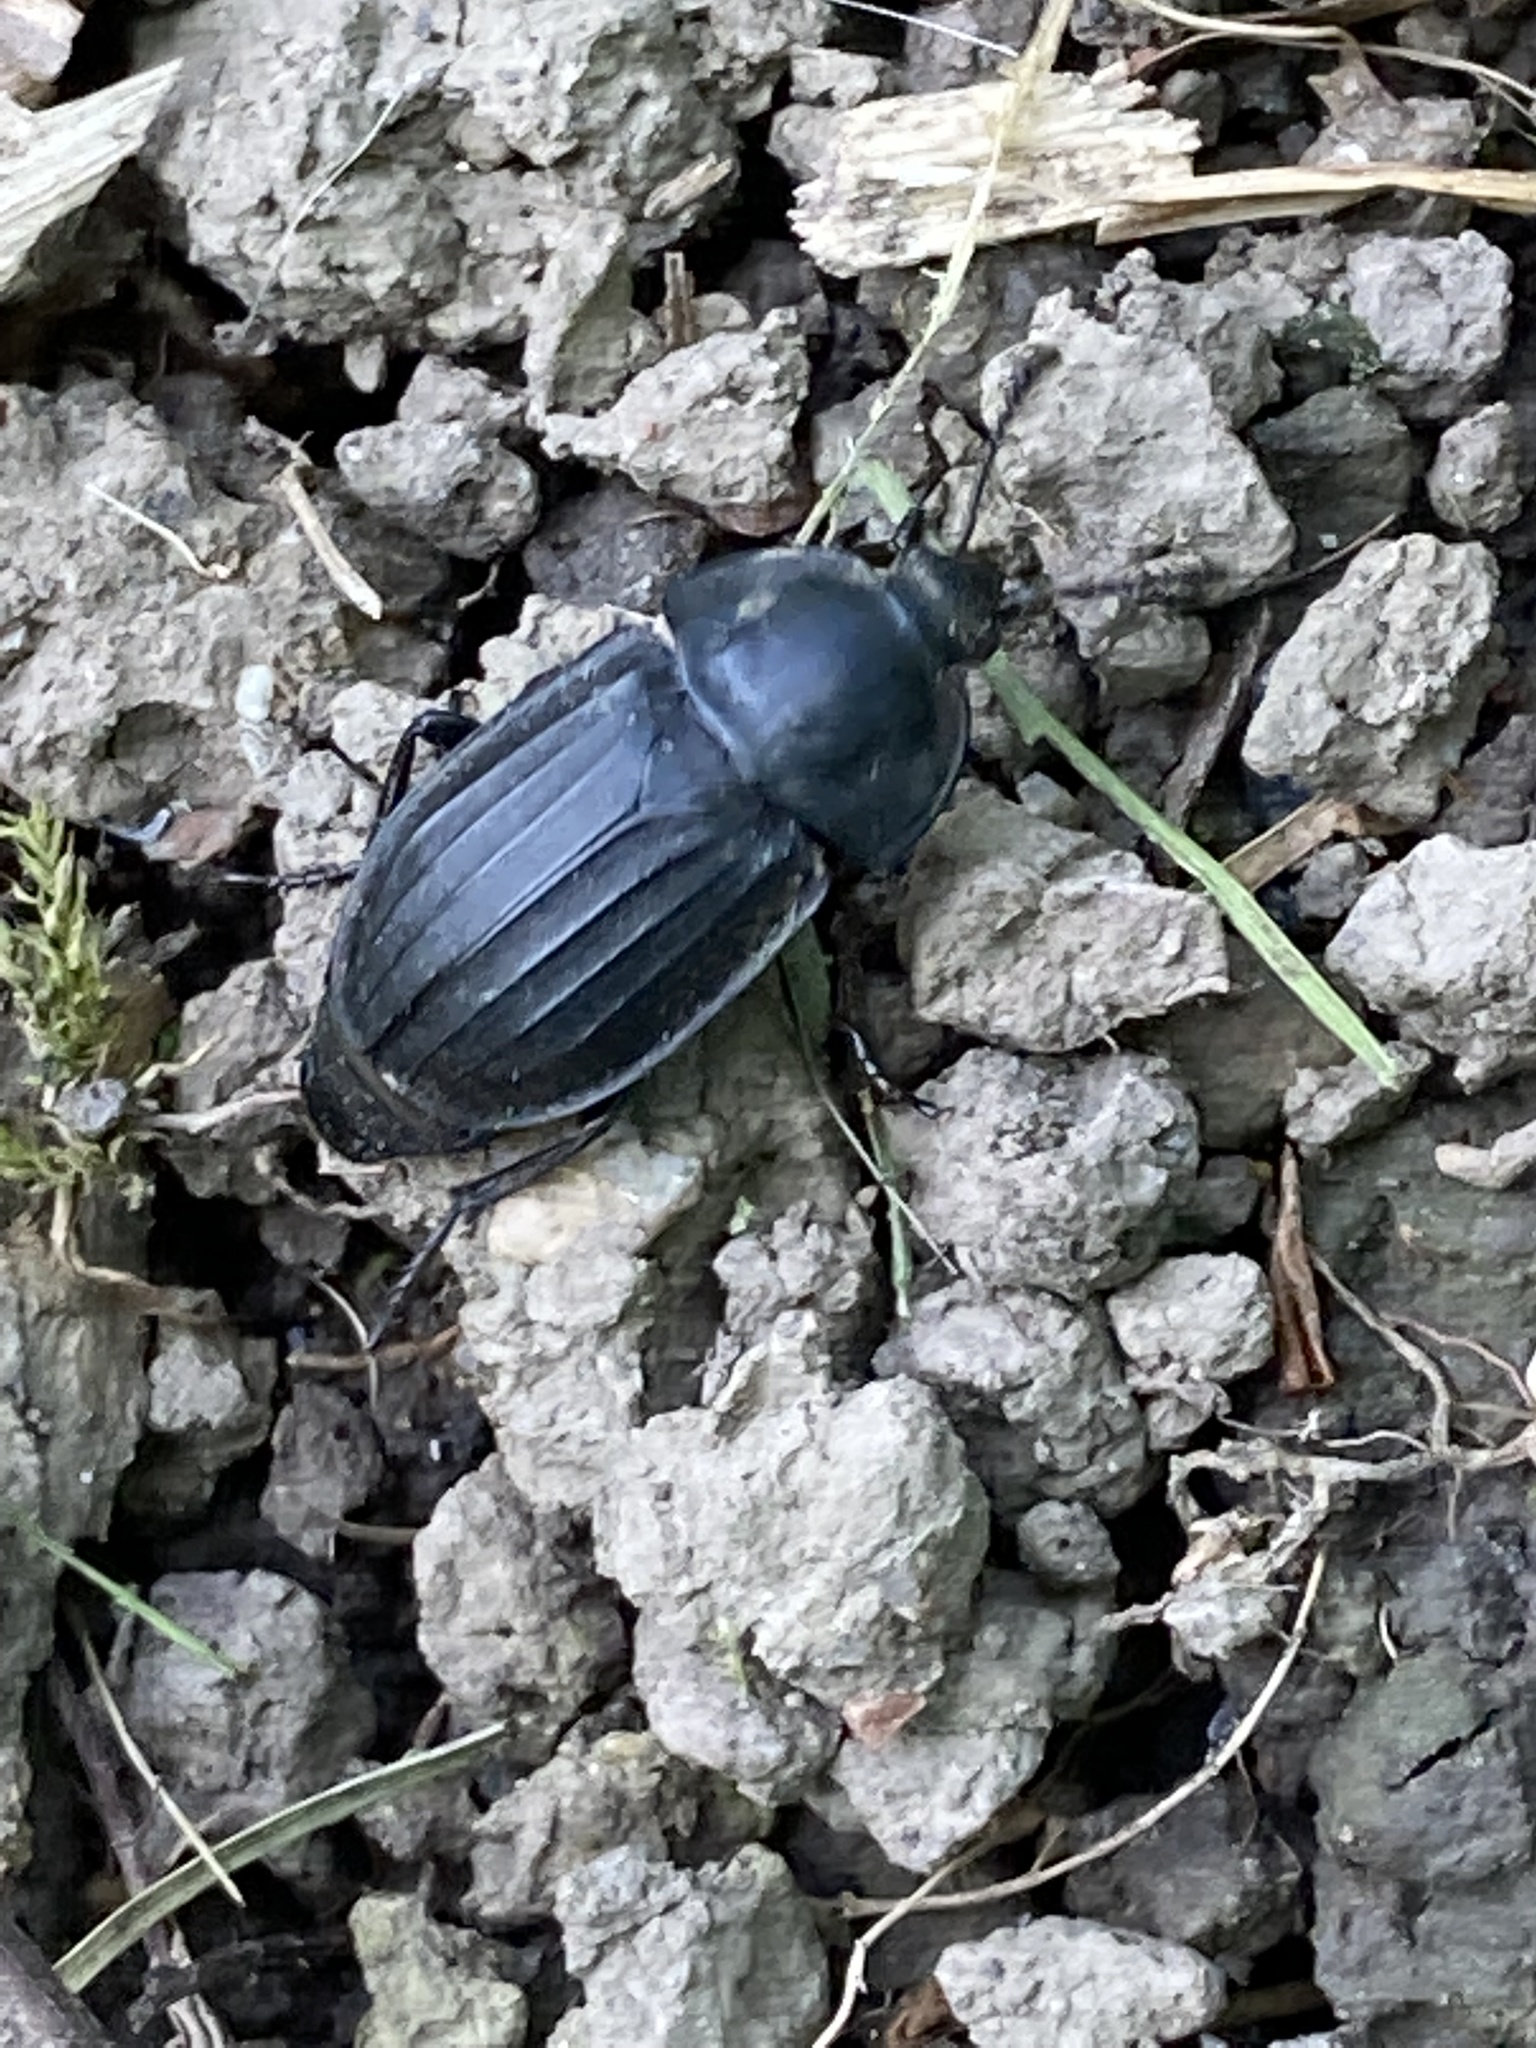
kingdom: Animalia
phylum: Arthropoda
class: Insecta
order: Coleoptera
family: Staphylinidae
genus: Silpha
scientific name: Silpha tristis
